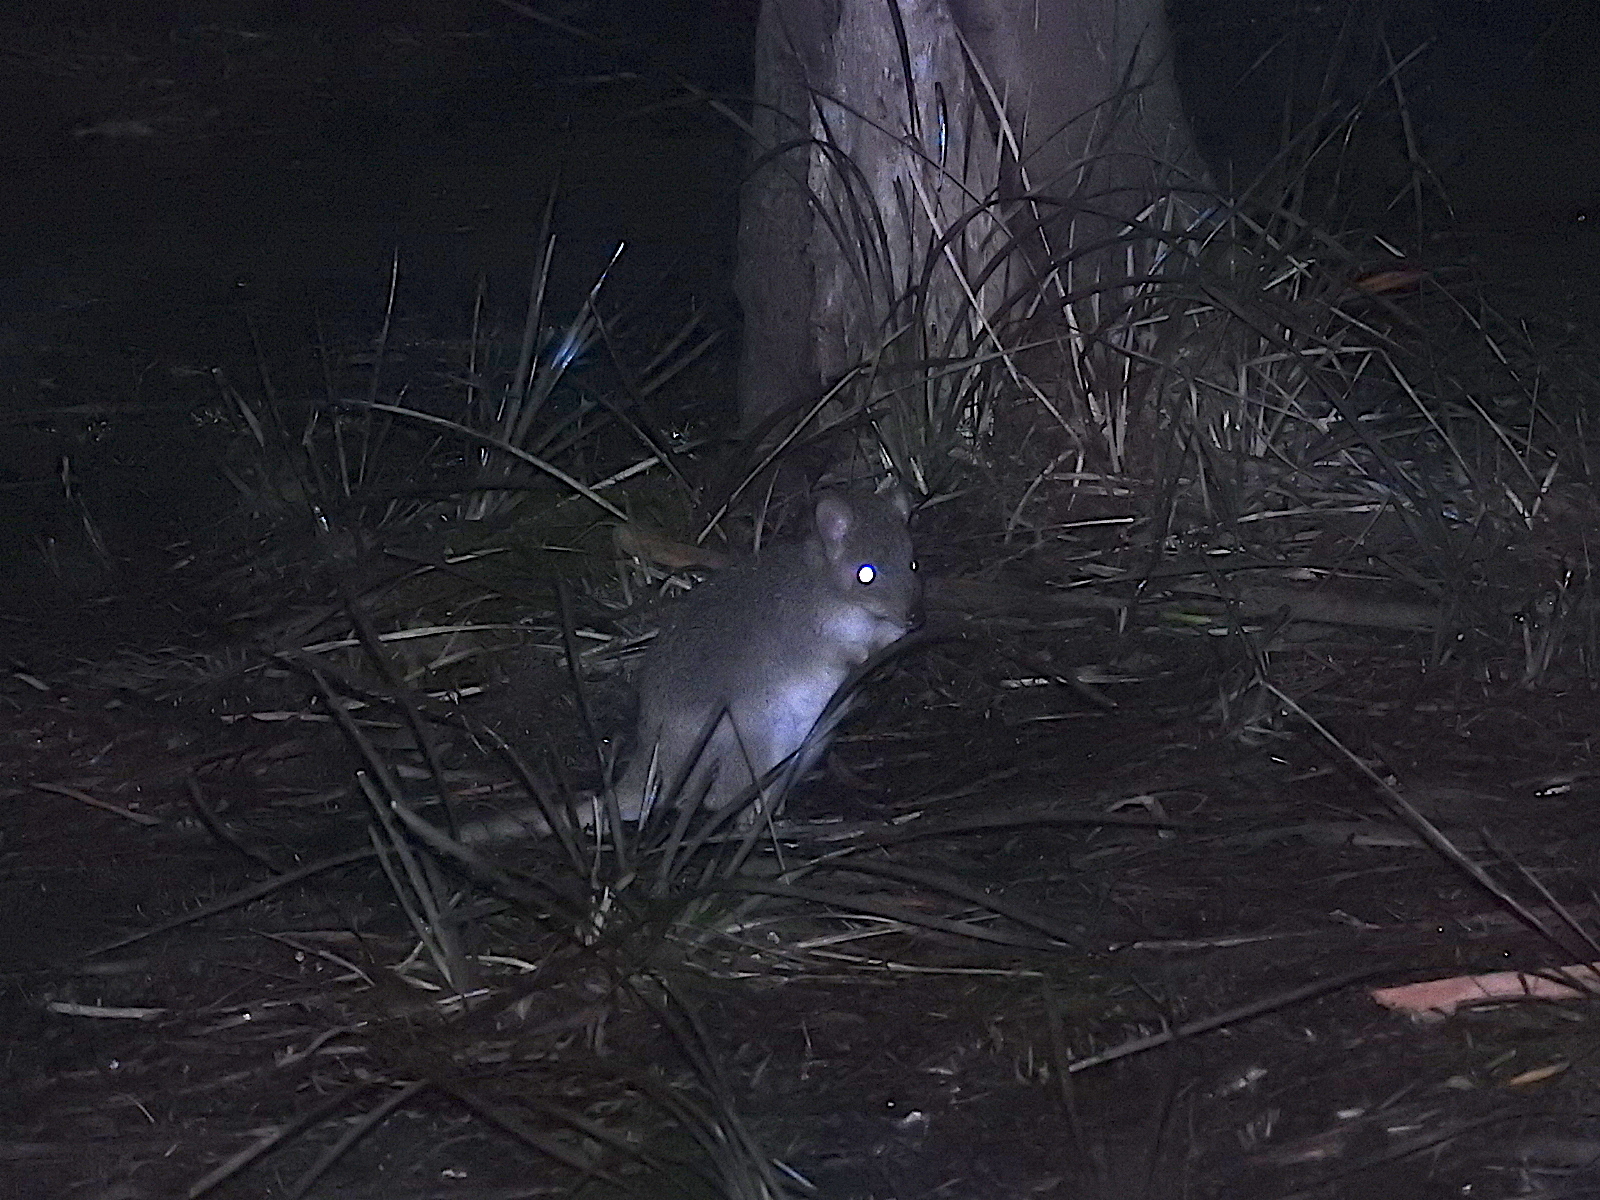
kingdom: Animalia
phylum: Chordata
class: Mammalia
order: Diprotodontia
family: Potoroidae
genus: Bettongia
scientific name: Bettongia gaimardi
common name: Eastern bettong
